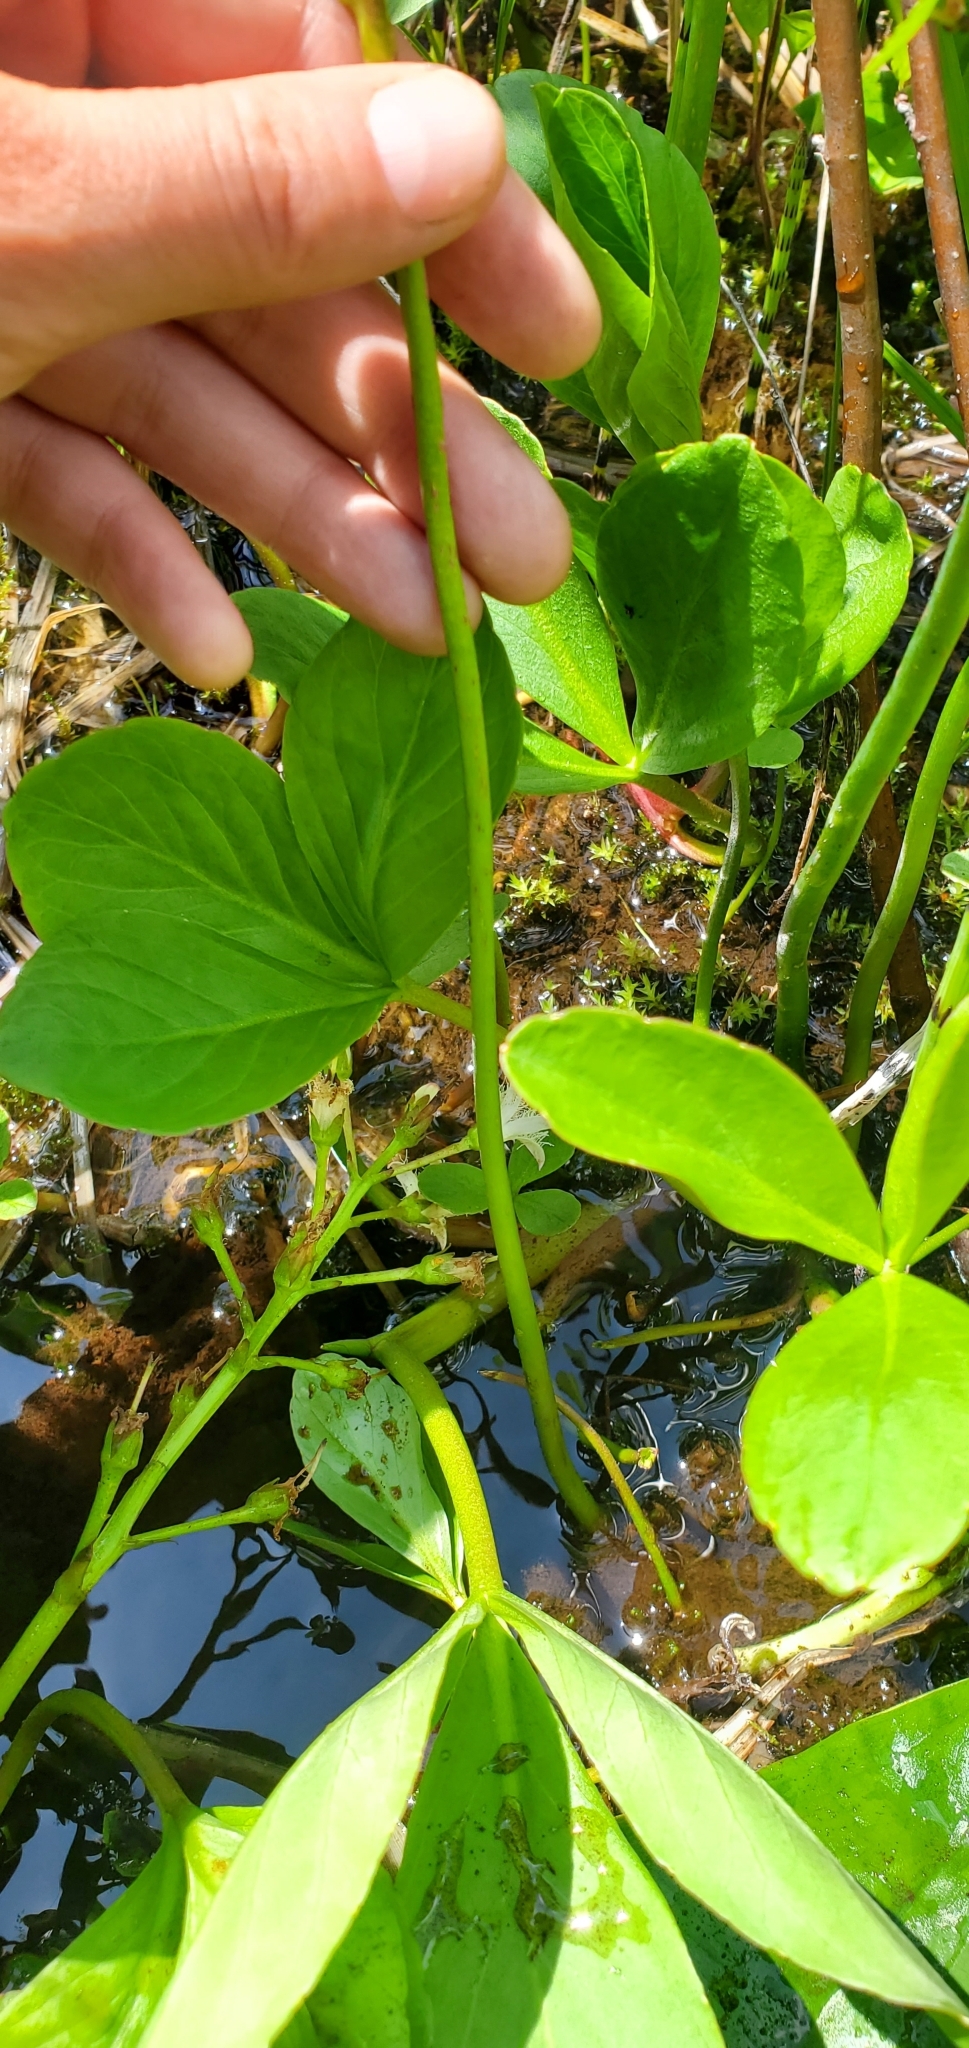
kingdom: Plantae
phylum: Tracheophyta
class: Magnoliopsida
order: Asterales
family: Menyanthaceae
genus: Menyanthes
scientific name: Menyanthes trifoliata
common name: Bogbean
